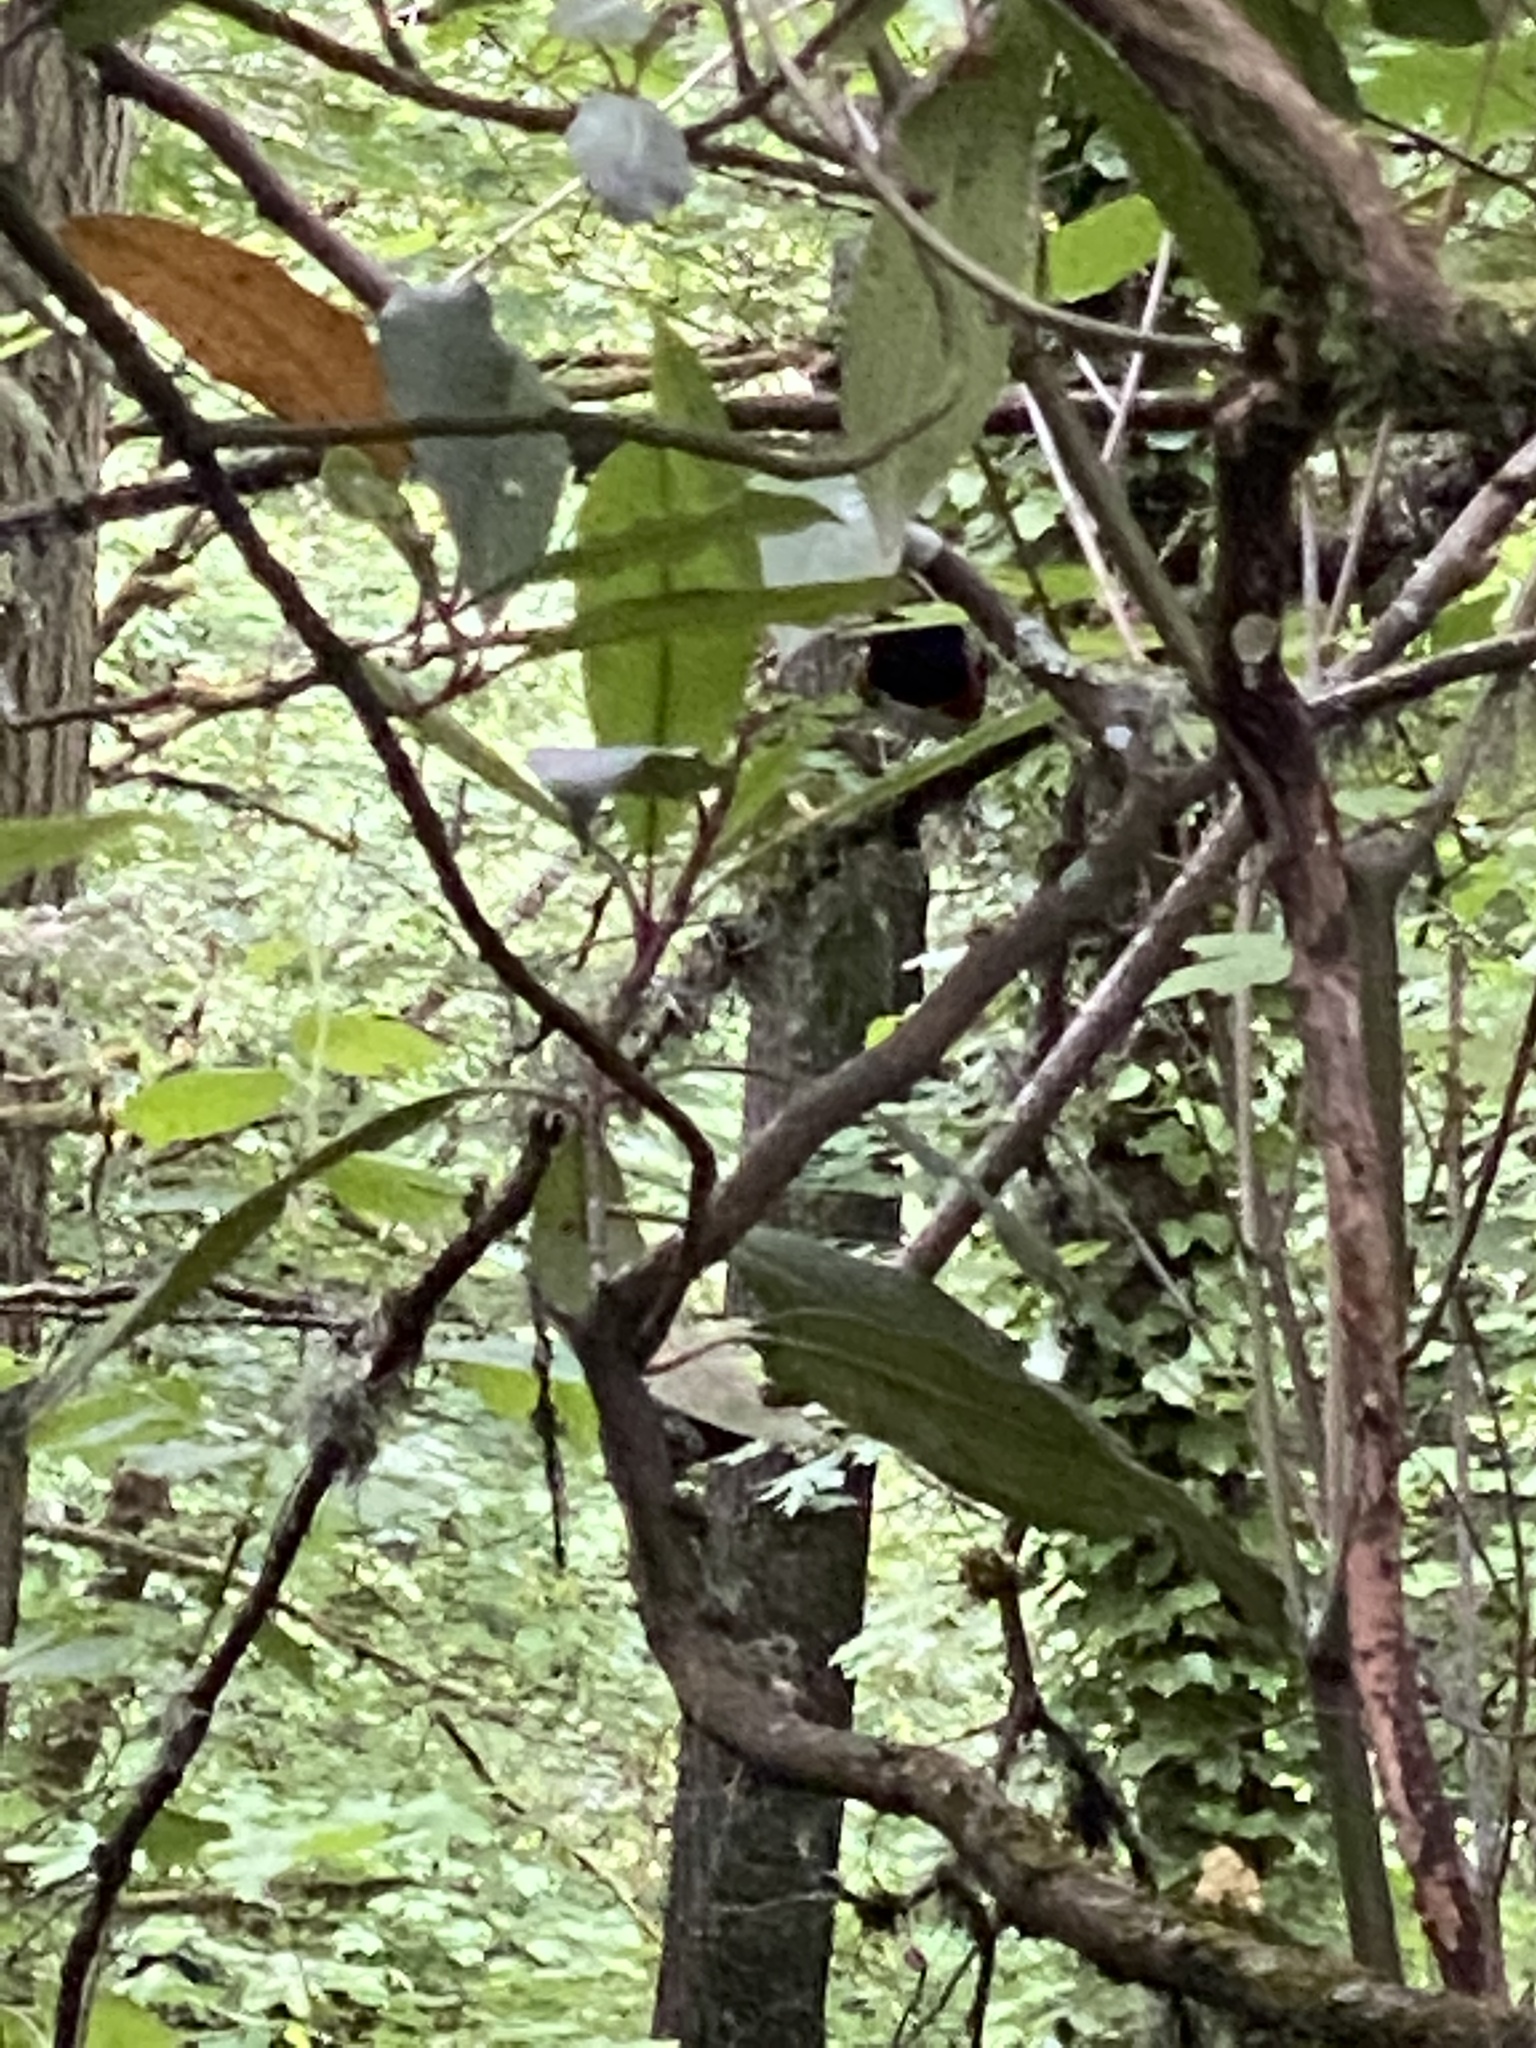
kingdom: Animalia
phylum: Chordata
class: Aves
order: Passeriformes
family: Passerellidae
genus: Pipilo
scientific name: Pipilo maculatus
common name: Spotted towhee
